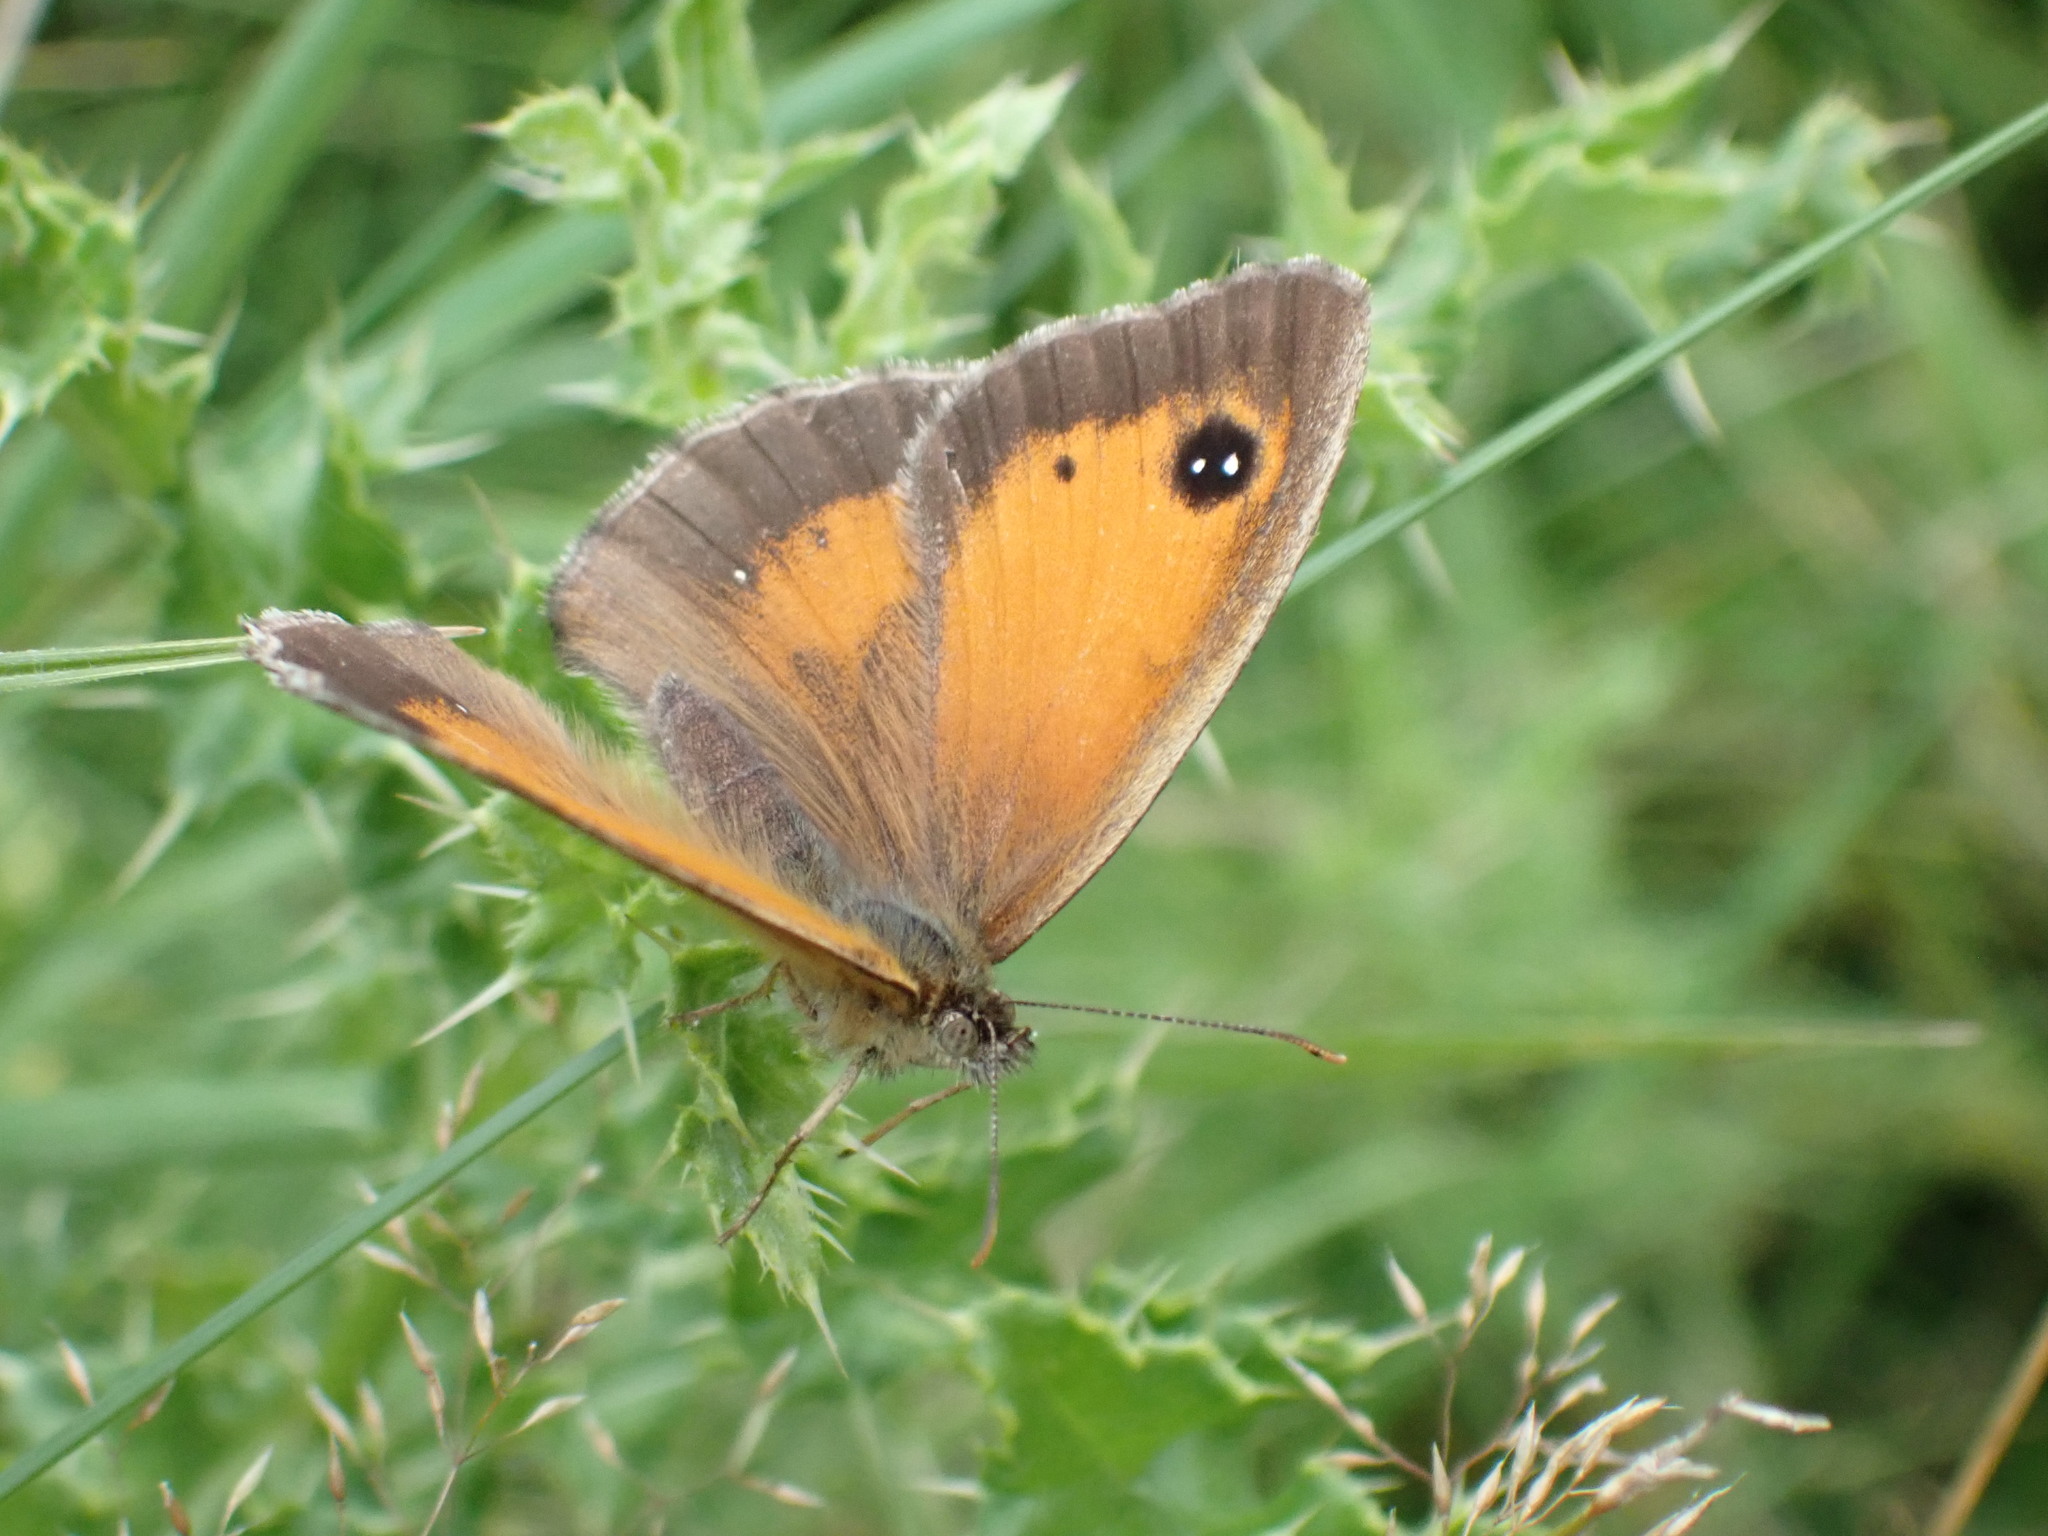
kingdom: Animalia
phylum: Arthropoda
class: Insecta
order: Lepidoptera
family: Nymphalidae
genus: Pyronia
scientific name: Pyronia tithonus
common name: Gatekeeper
